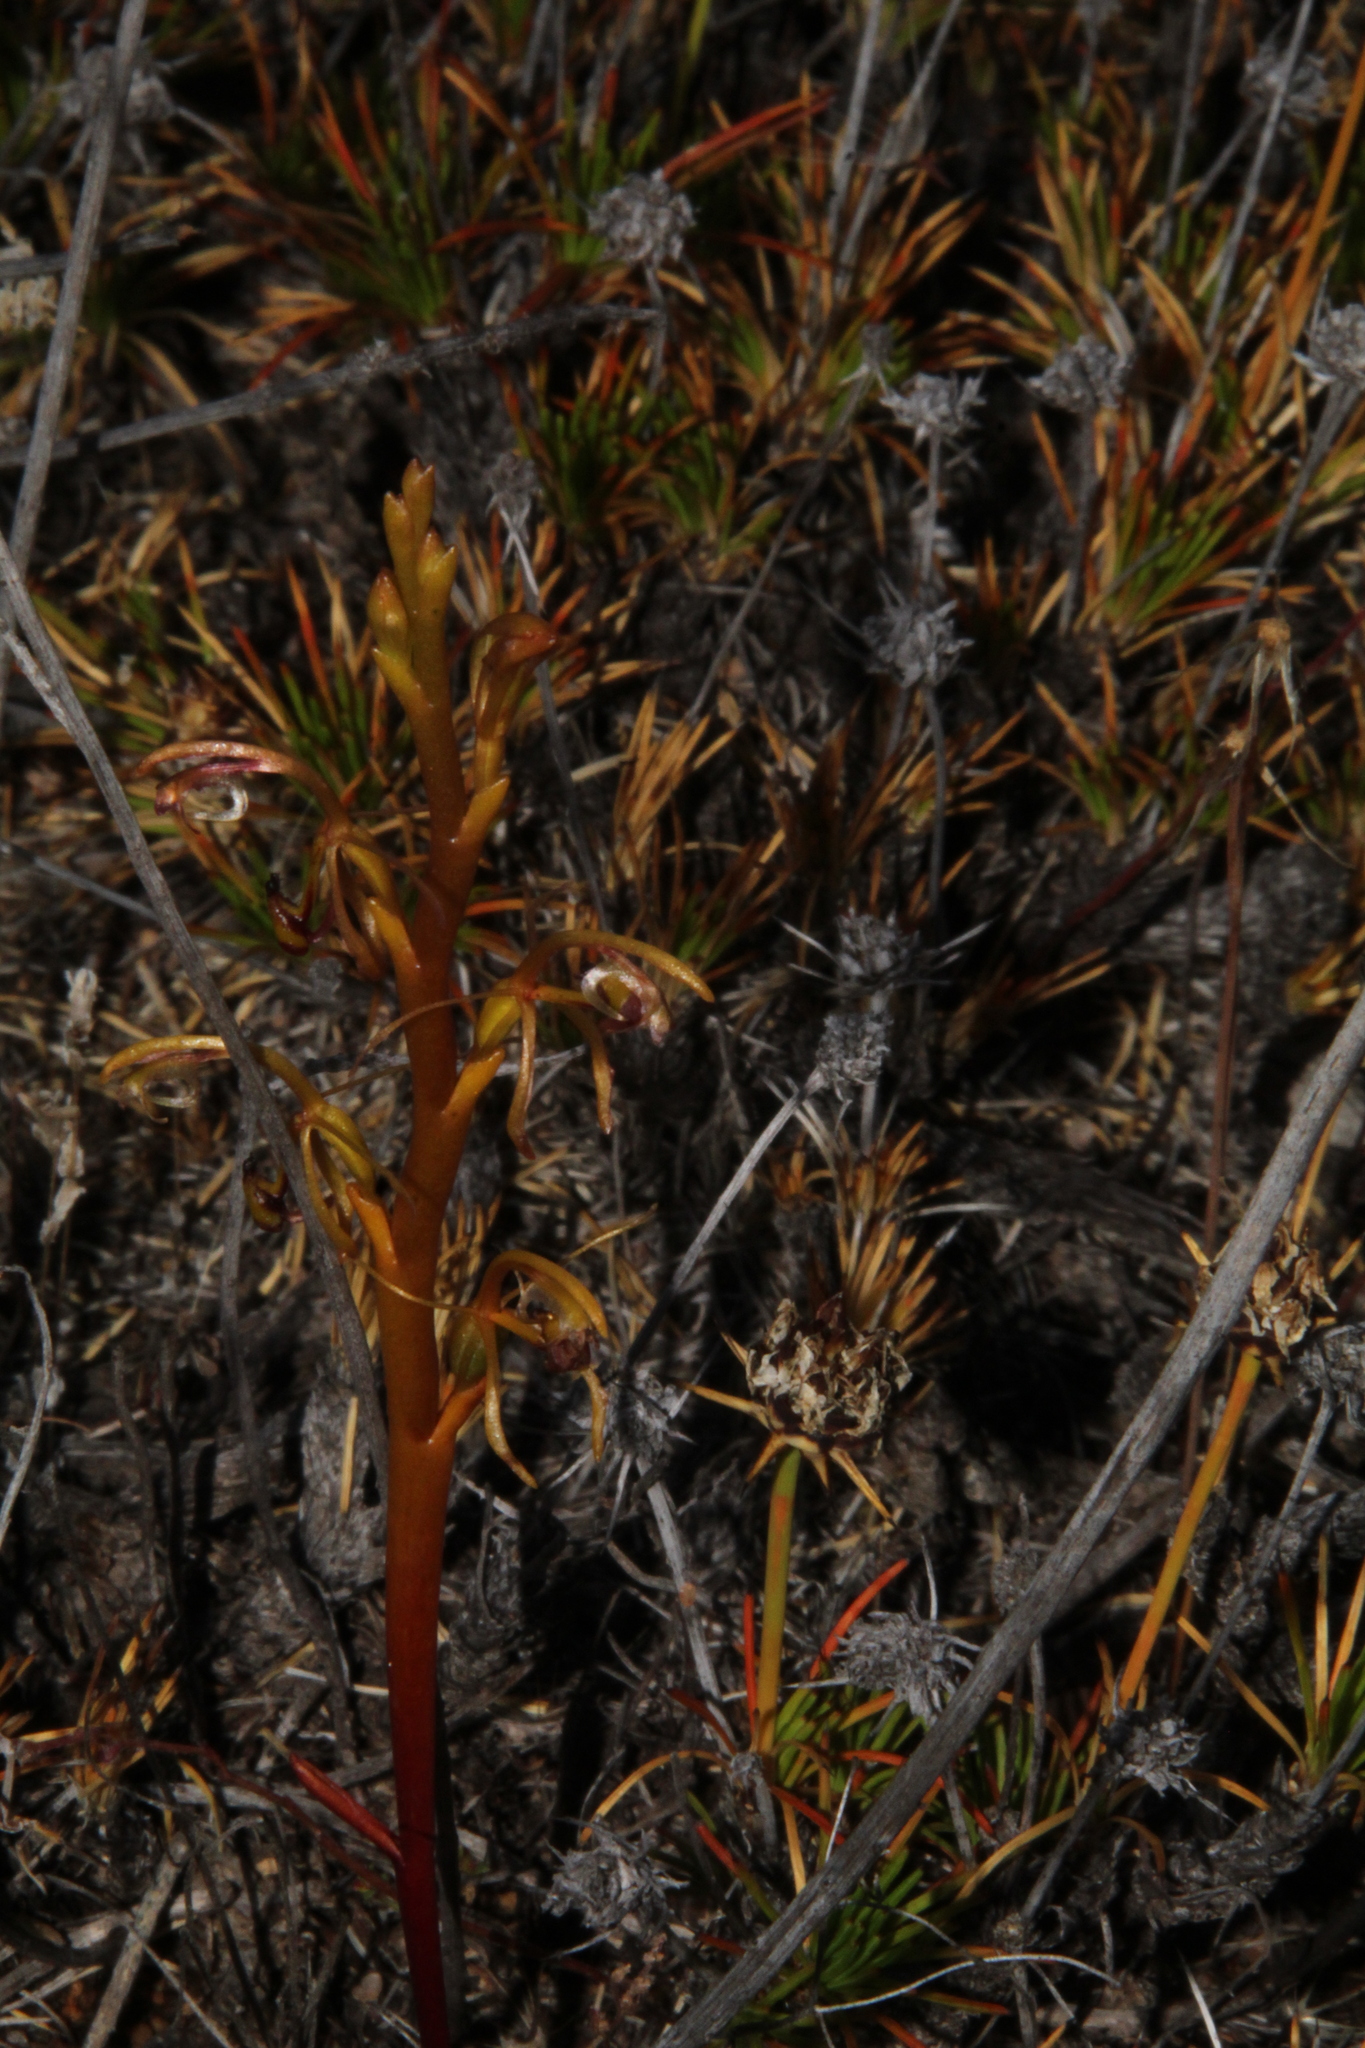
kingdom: Plantae
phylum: Tracheophyta
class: Liliopsida
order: Asparagales
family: Orchidaceae
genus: Spiculaea
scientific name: Spiculaea ciliata
